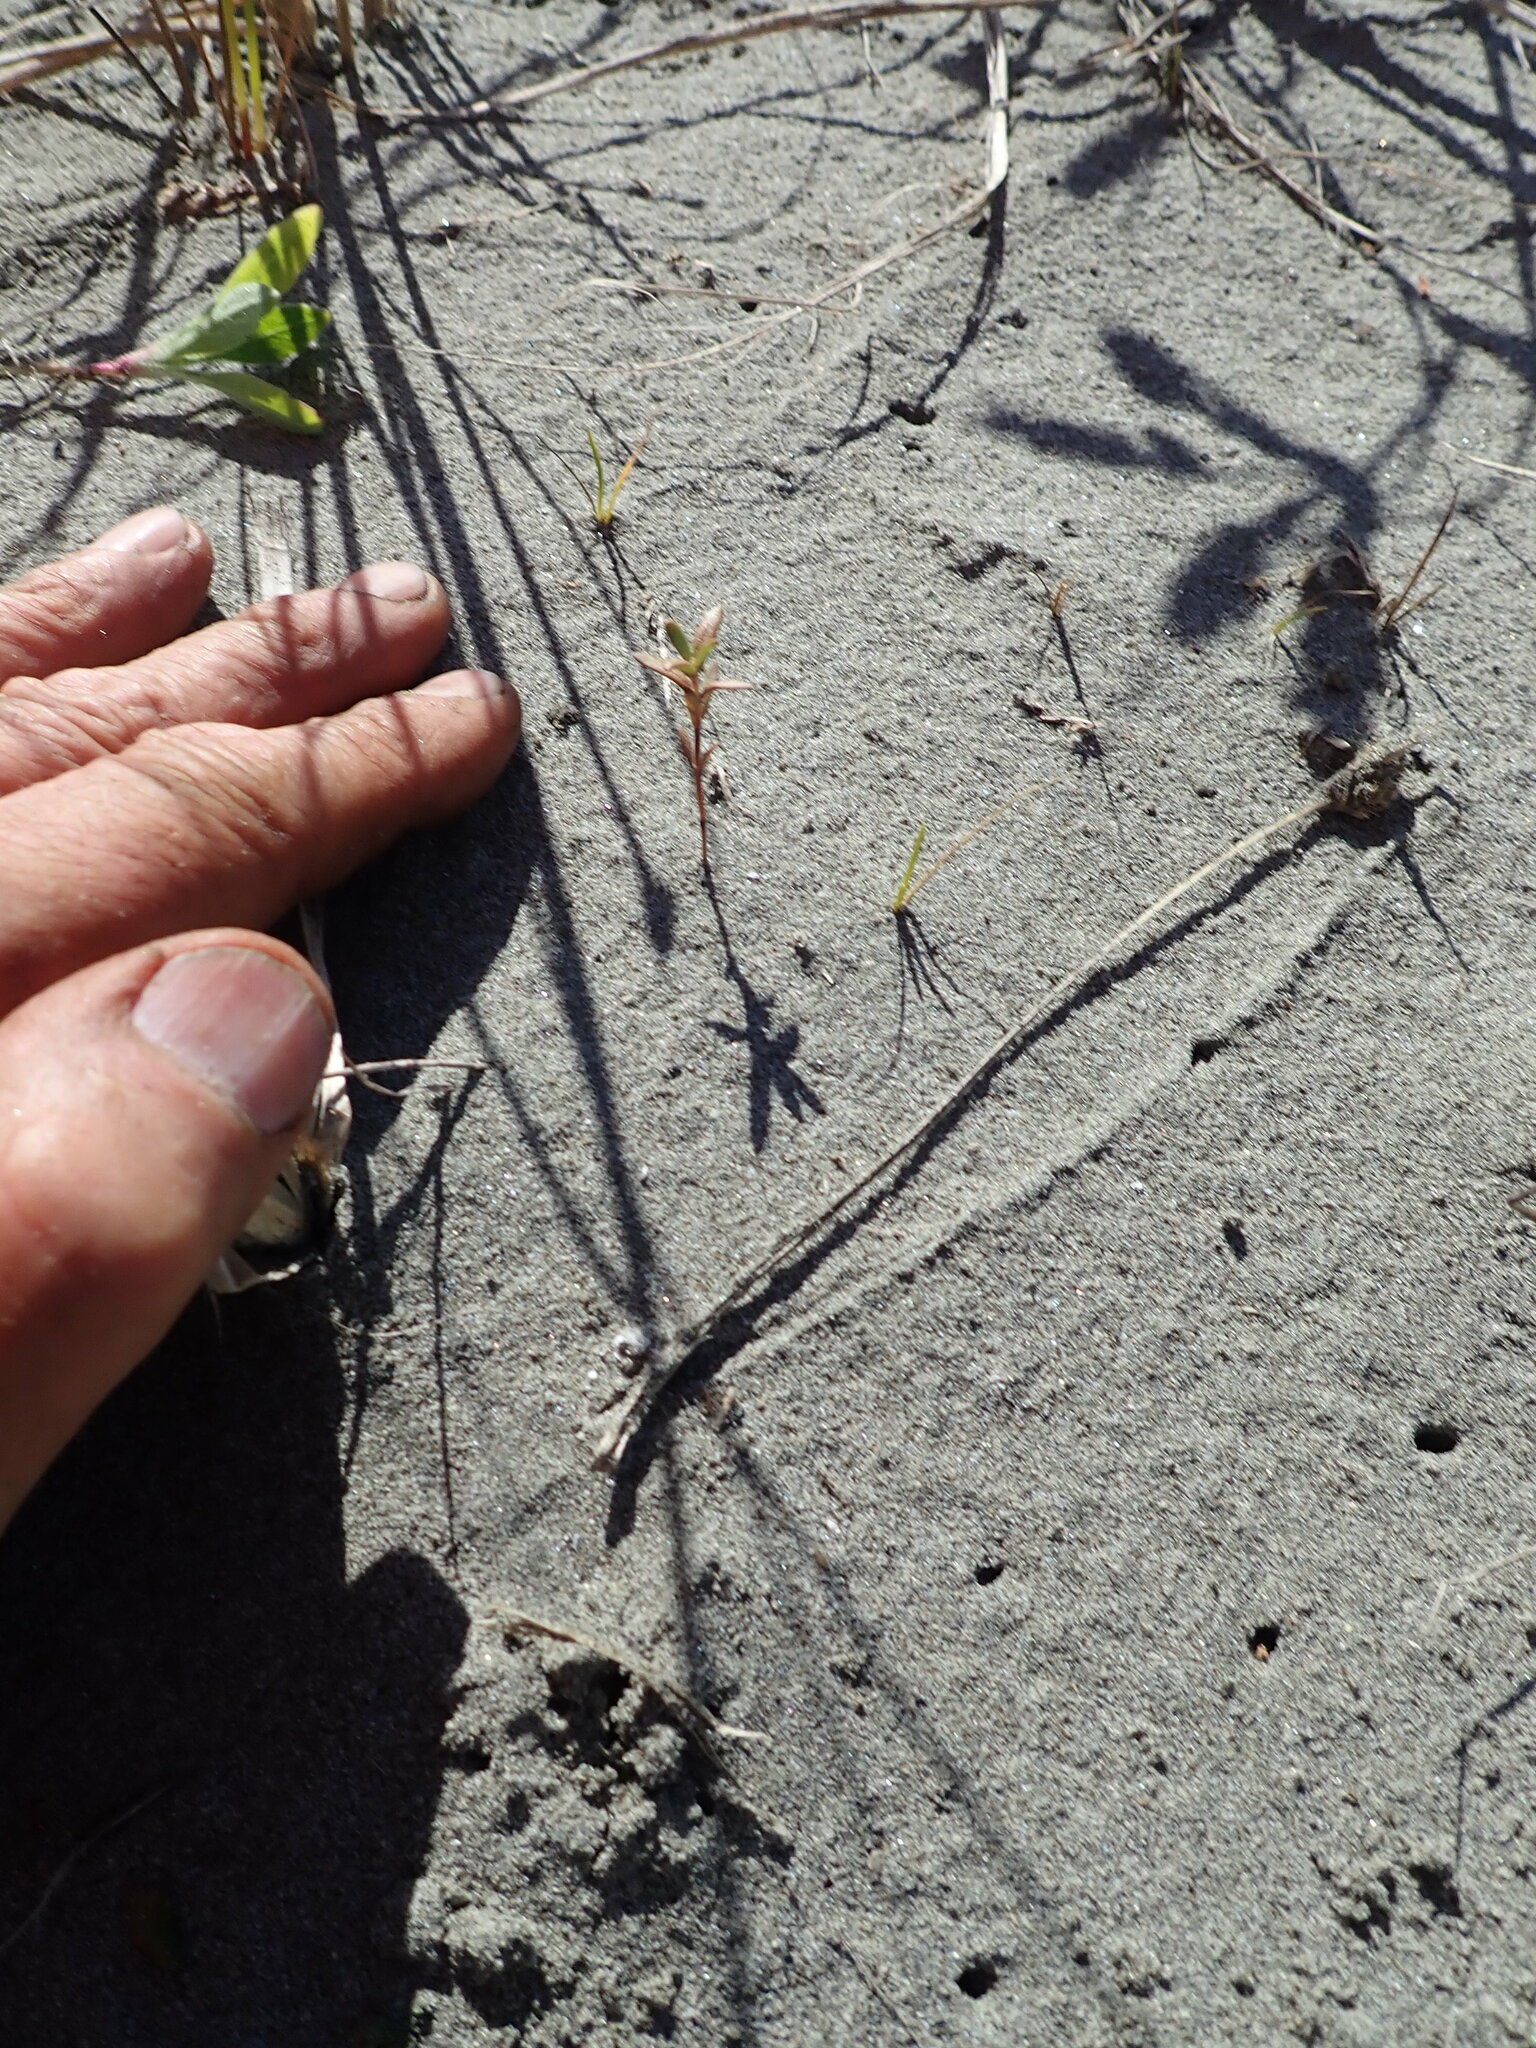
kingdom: Plantae
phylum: Tracheophyta
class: Magnoliopsida
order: Gentianales
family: Rubiaceae
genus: Coprosma
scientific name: Coprosma acerosa
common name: Sand coprosma
